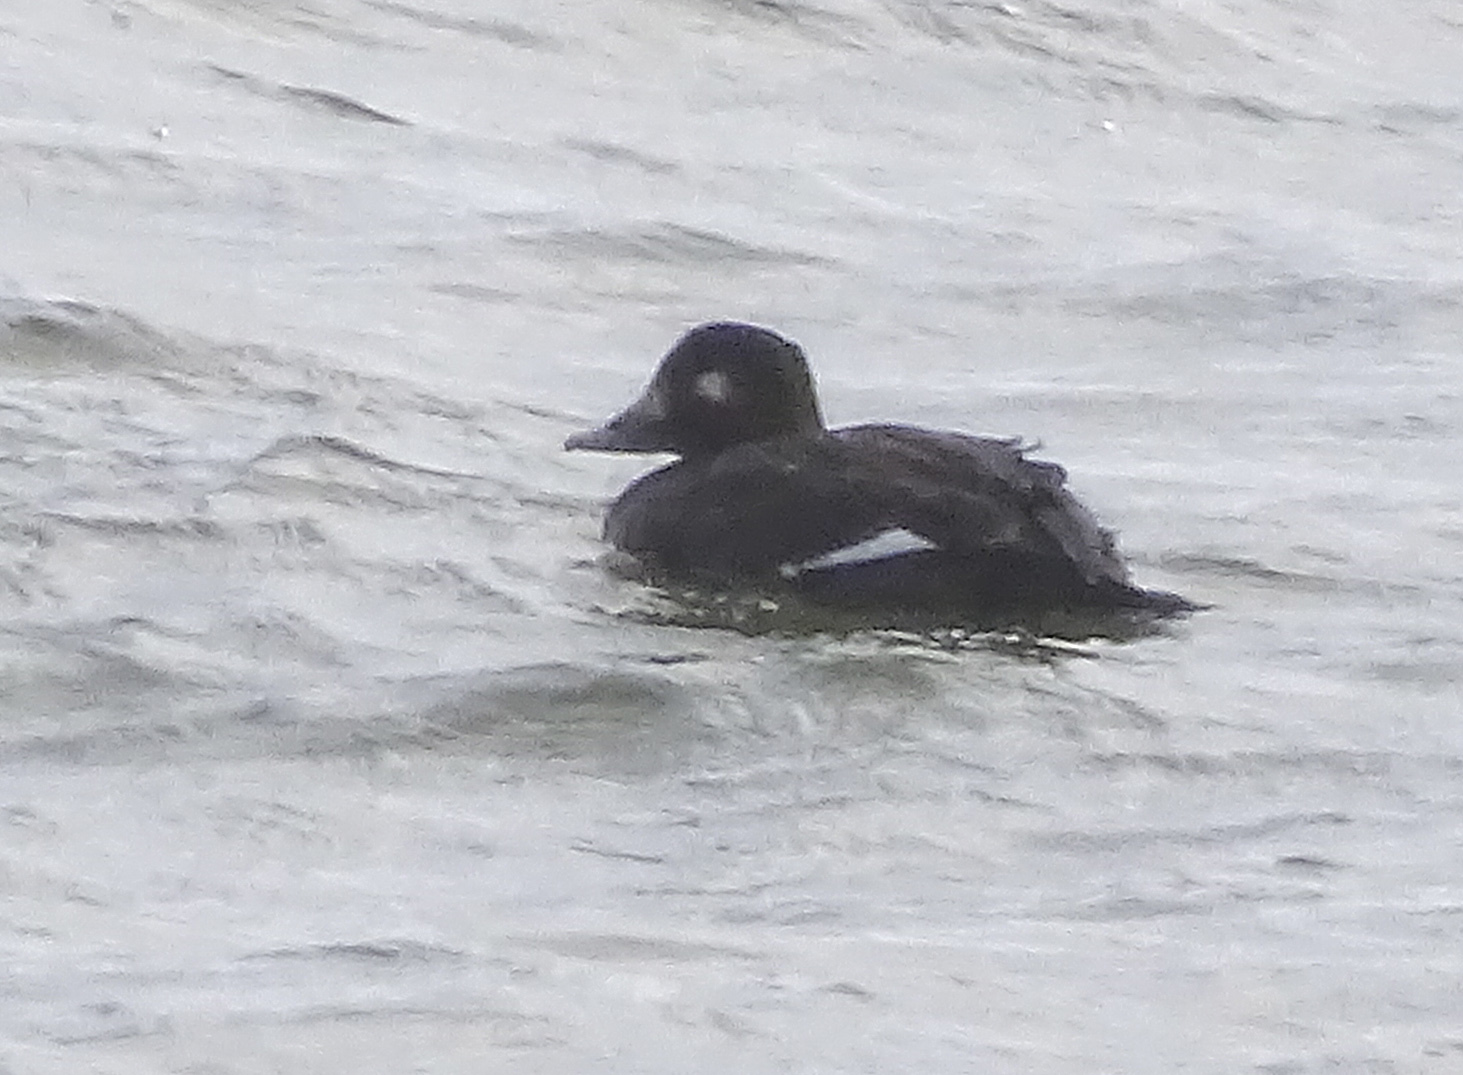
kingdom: Animalia
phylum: Chordata
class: Aves
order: Anseriformes
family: Anatidae
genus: Melanitta
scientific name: Melanitta deglandi
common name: White-winged scoter
